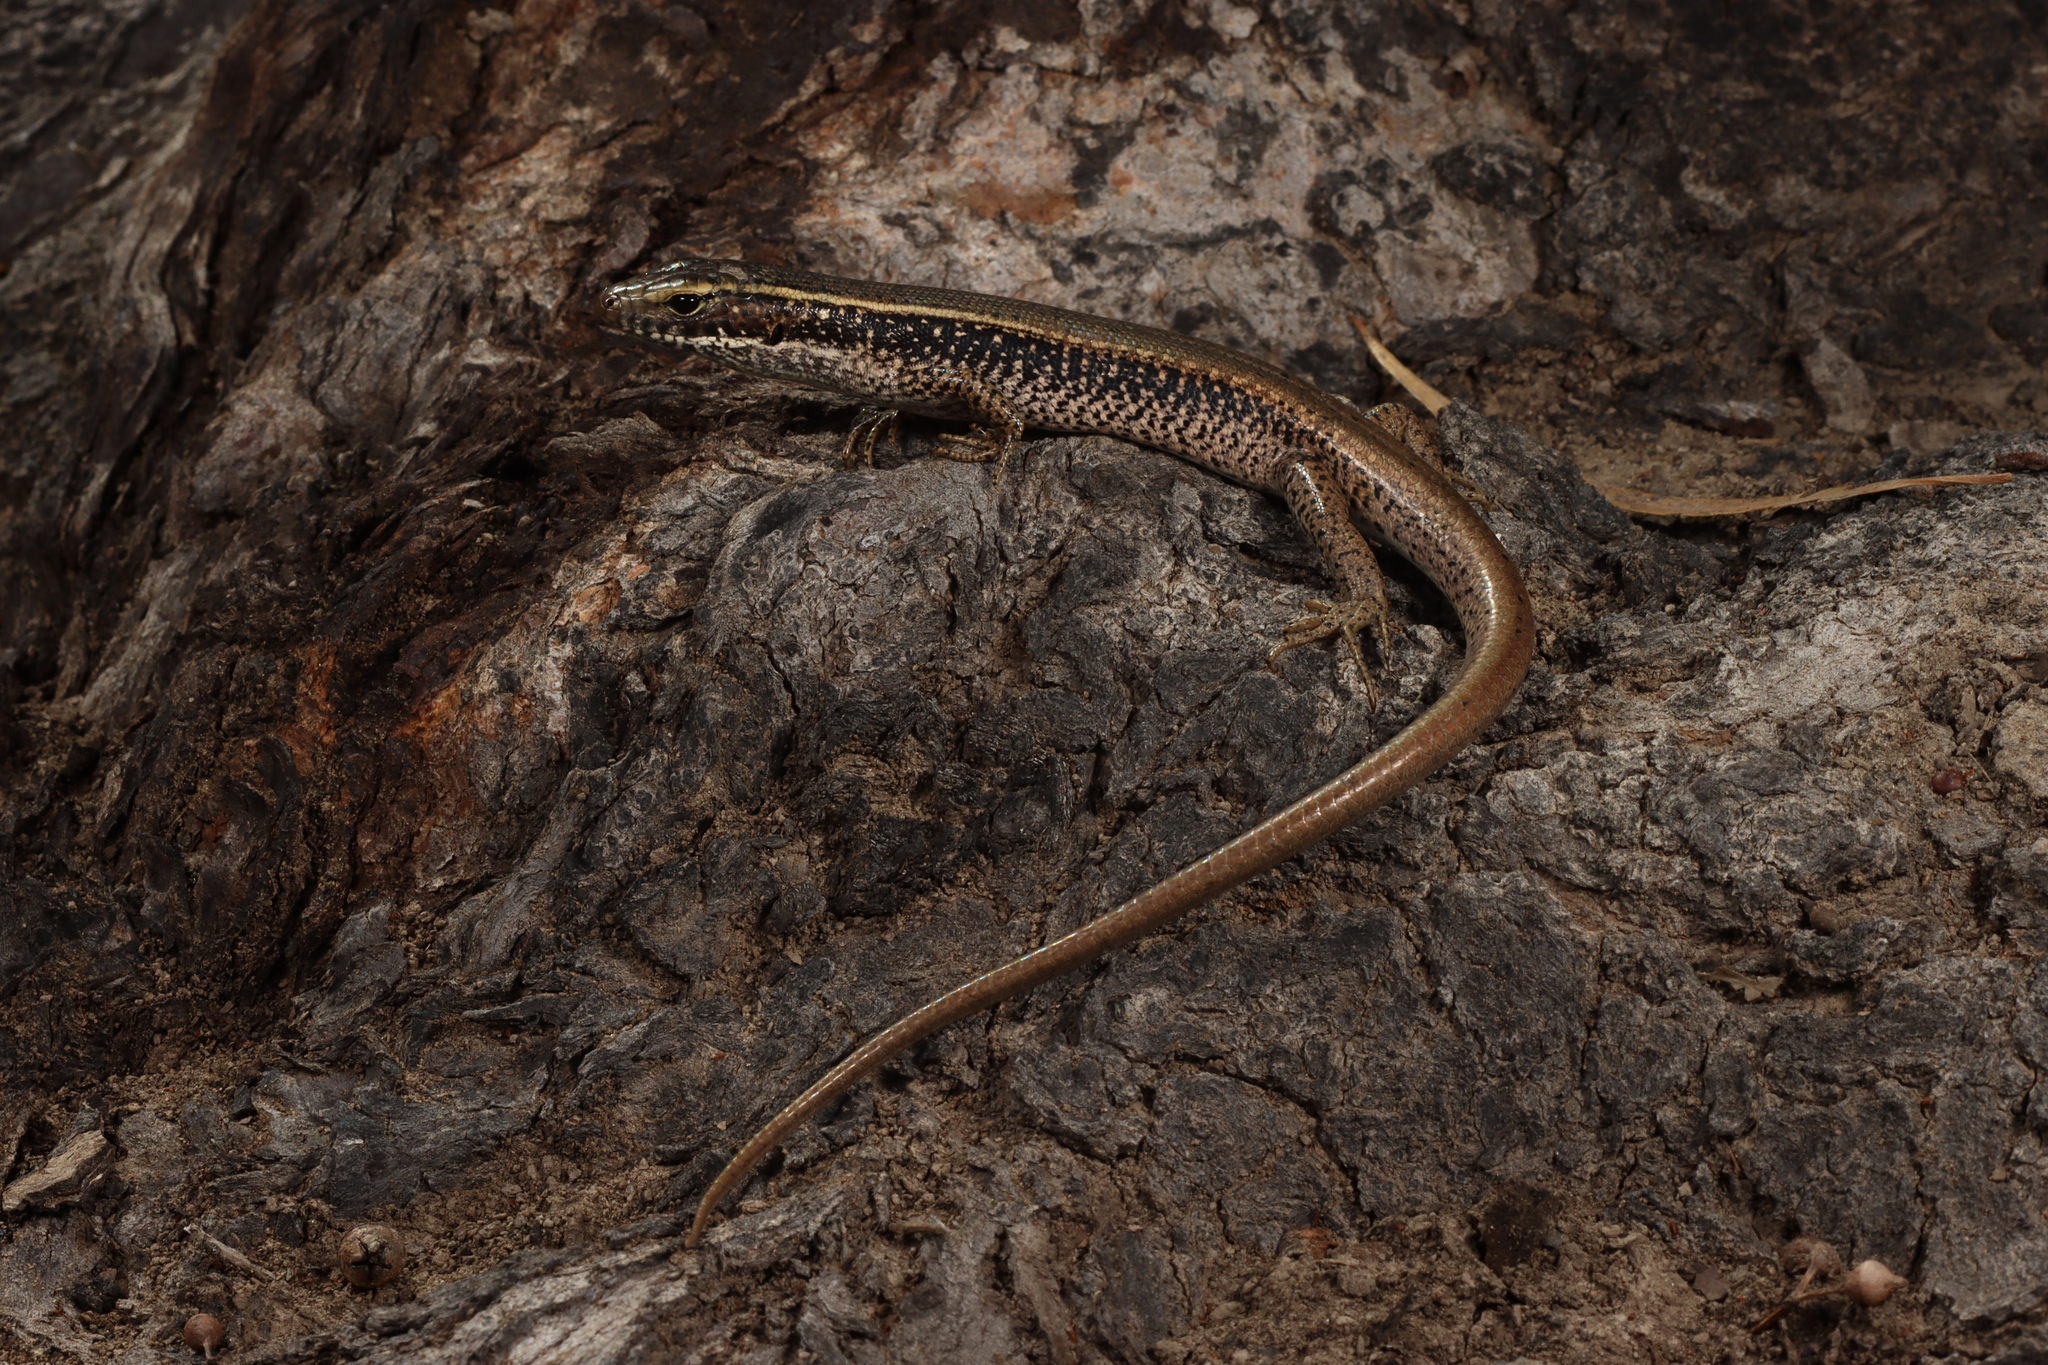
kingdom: Animalia
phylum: Chordata
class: Squamata
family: Scincidae
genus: Eulamprus
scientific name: Eulamprus quoyii
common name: Eastern water skink
